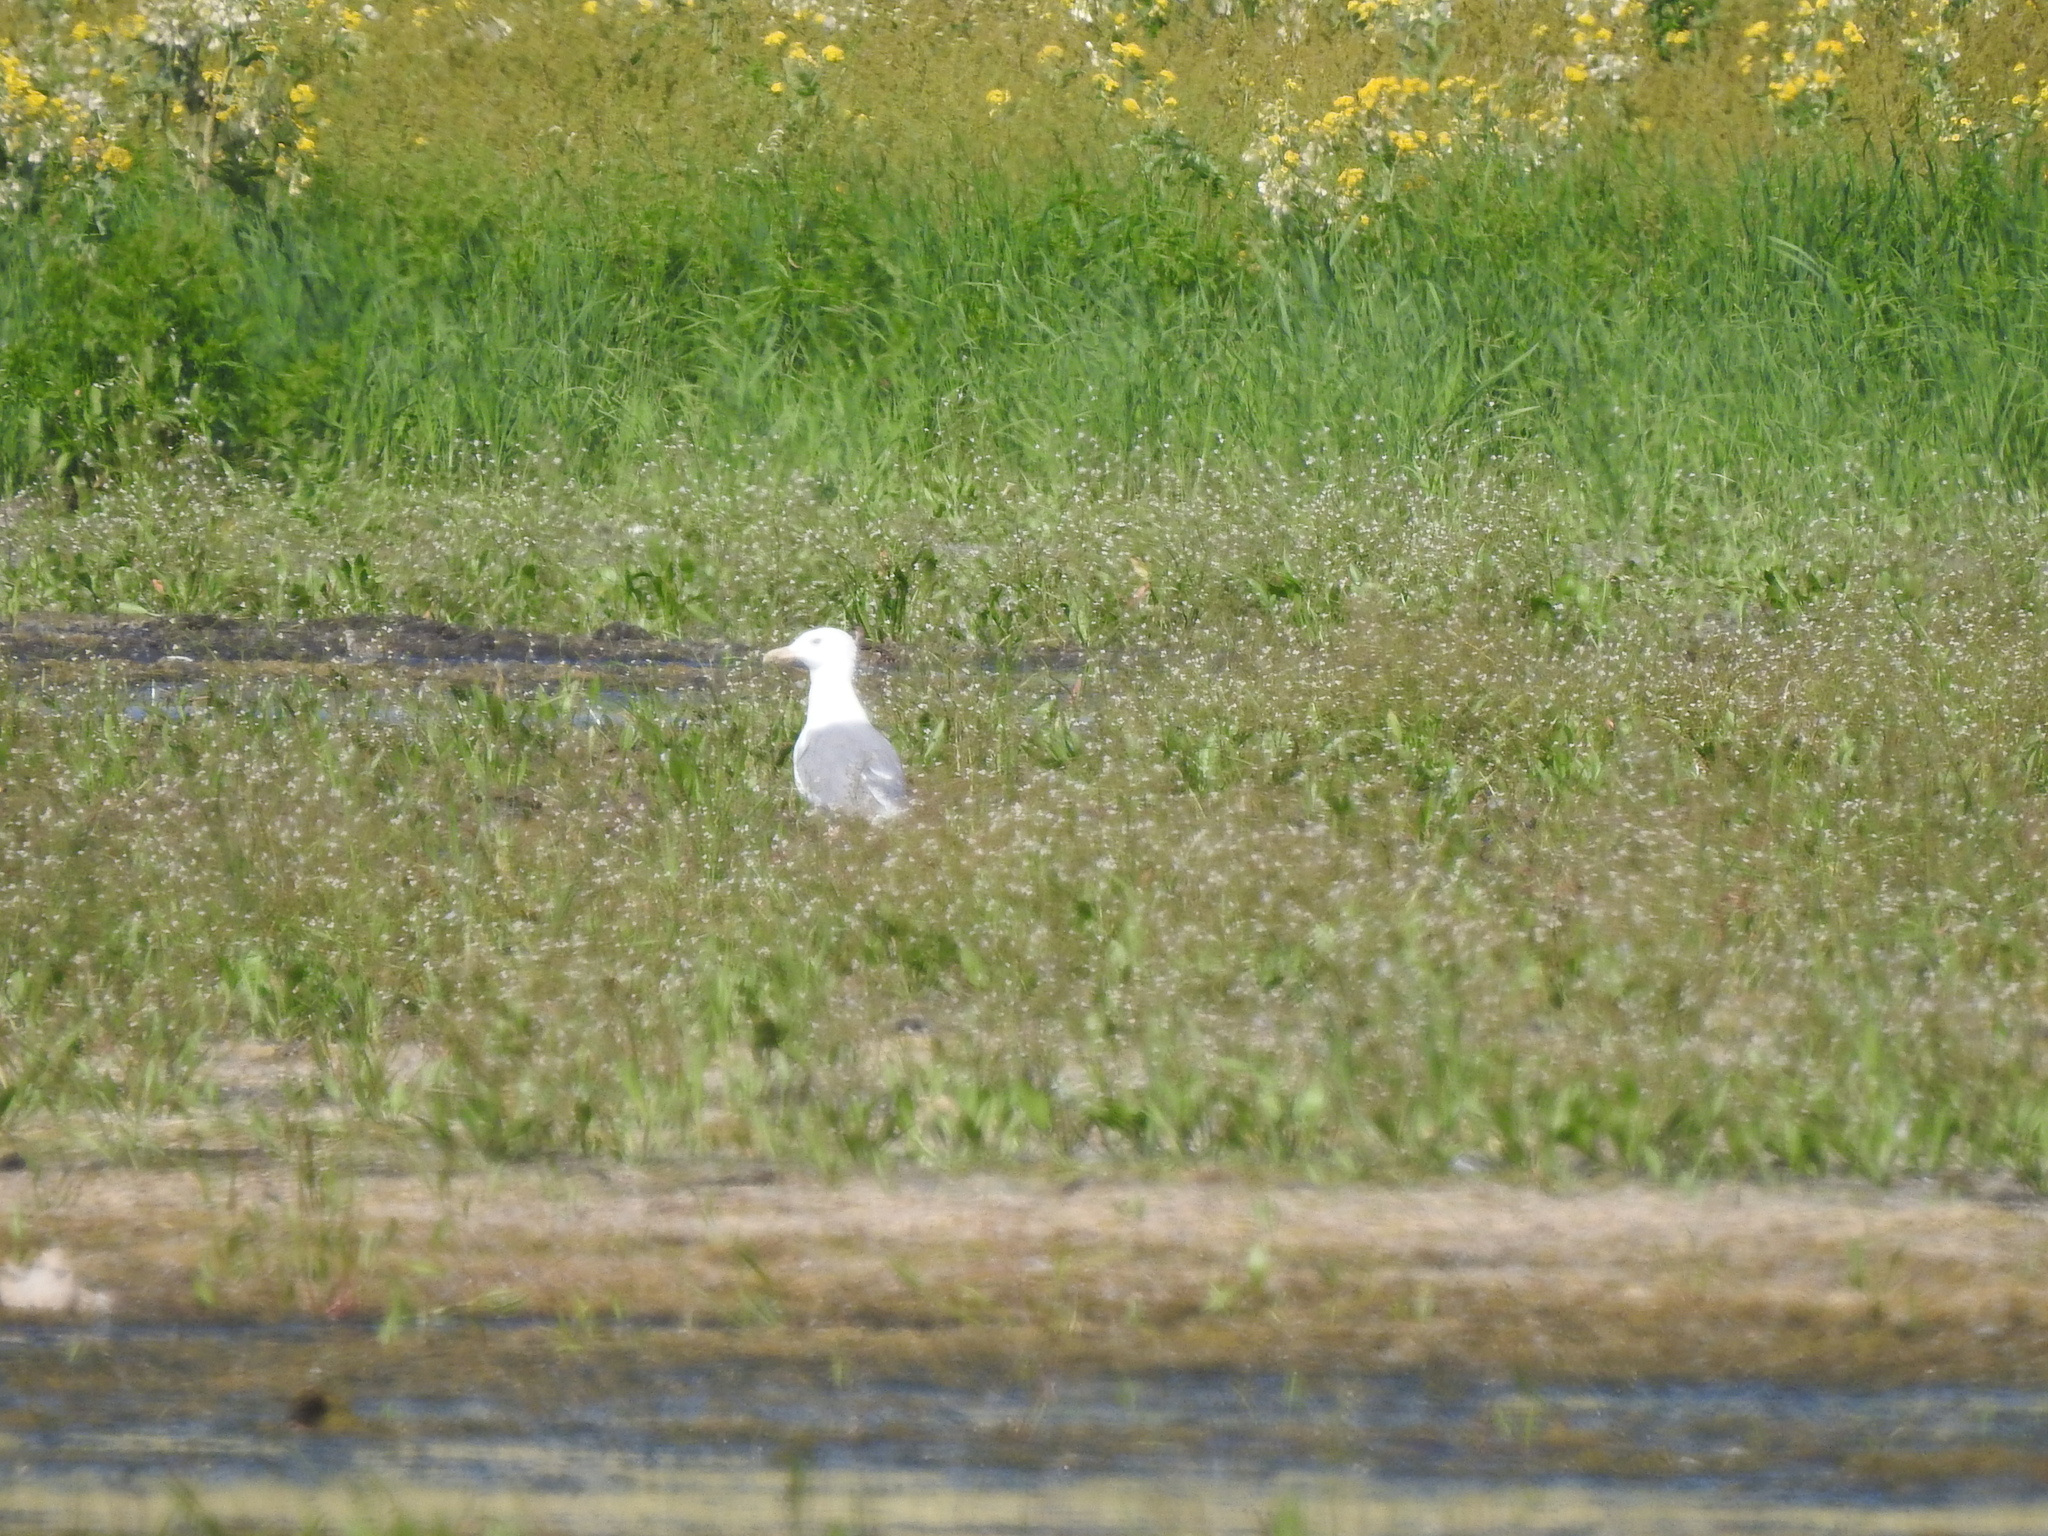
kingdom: Animalia
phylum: Chordata
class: Aves
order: Charadriiformes
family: Laridae
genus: Larus
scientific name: Larus fuscus
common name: Lesser black-backed gull
